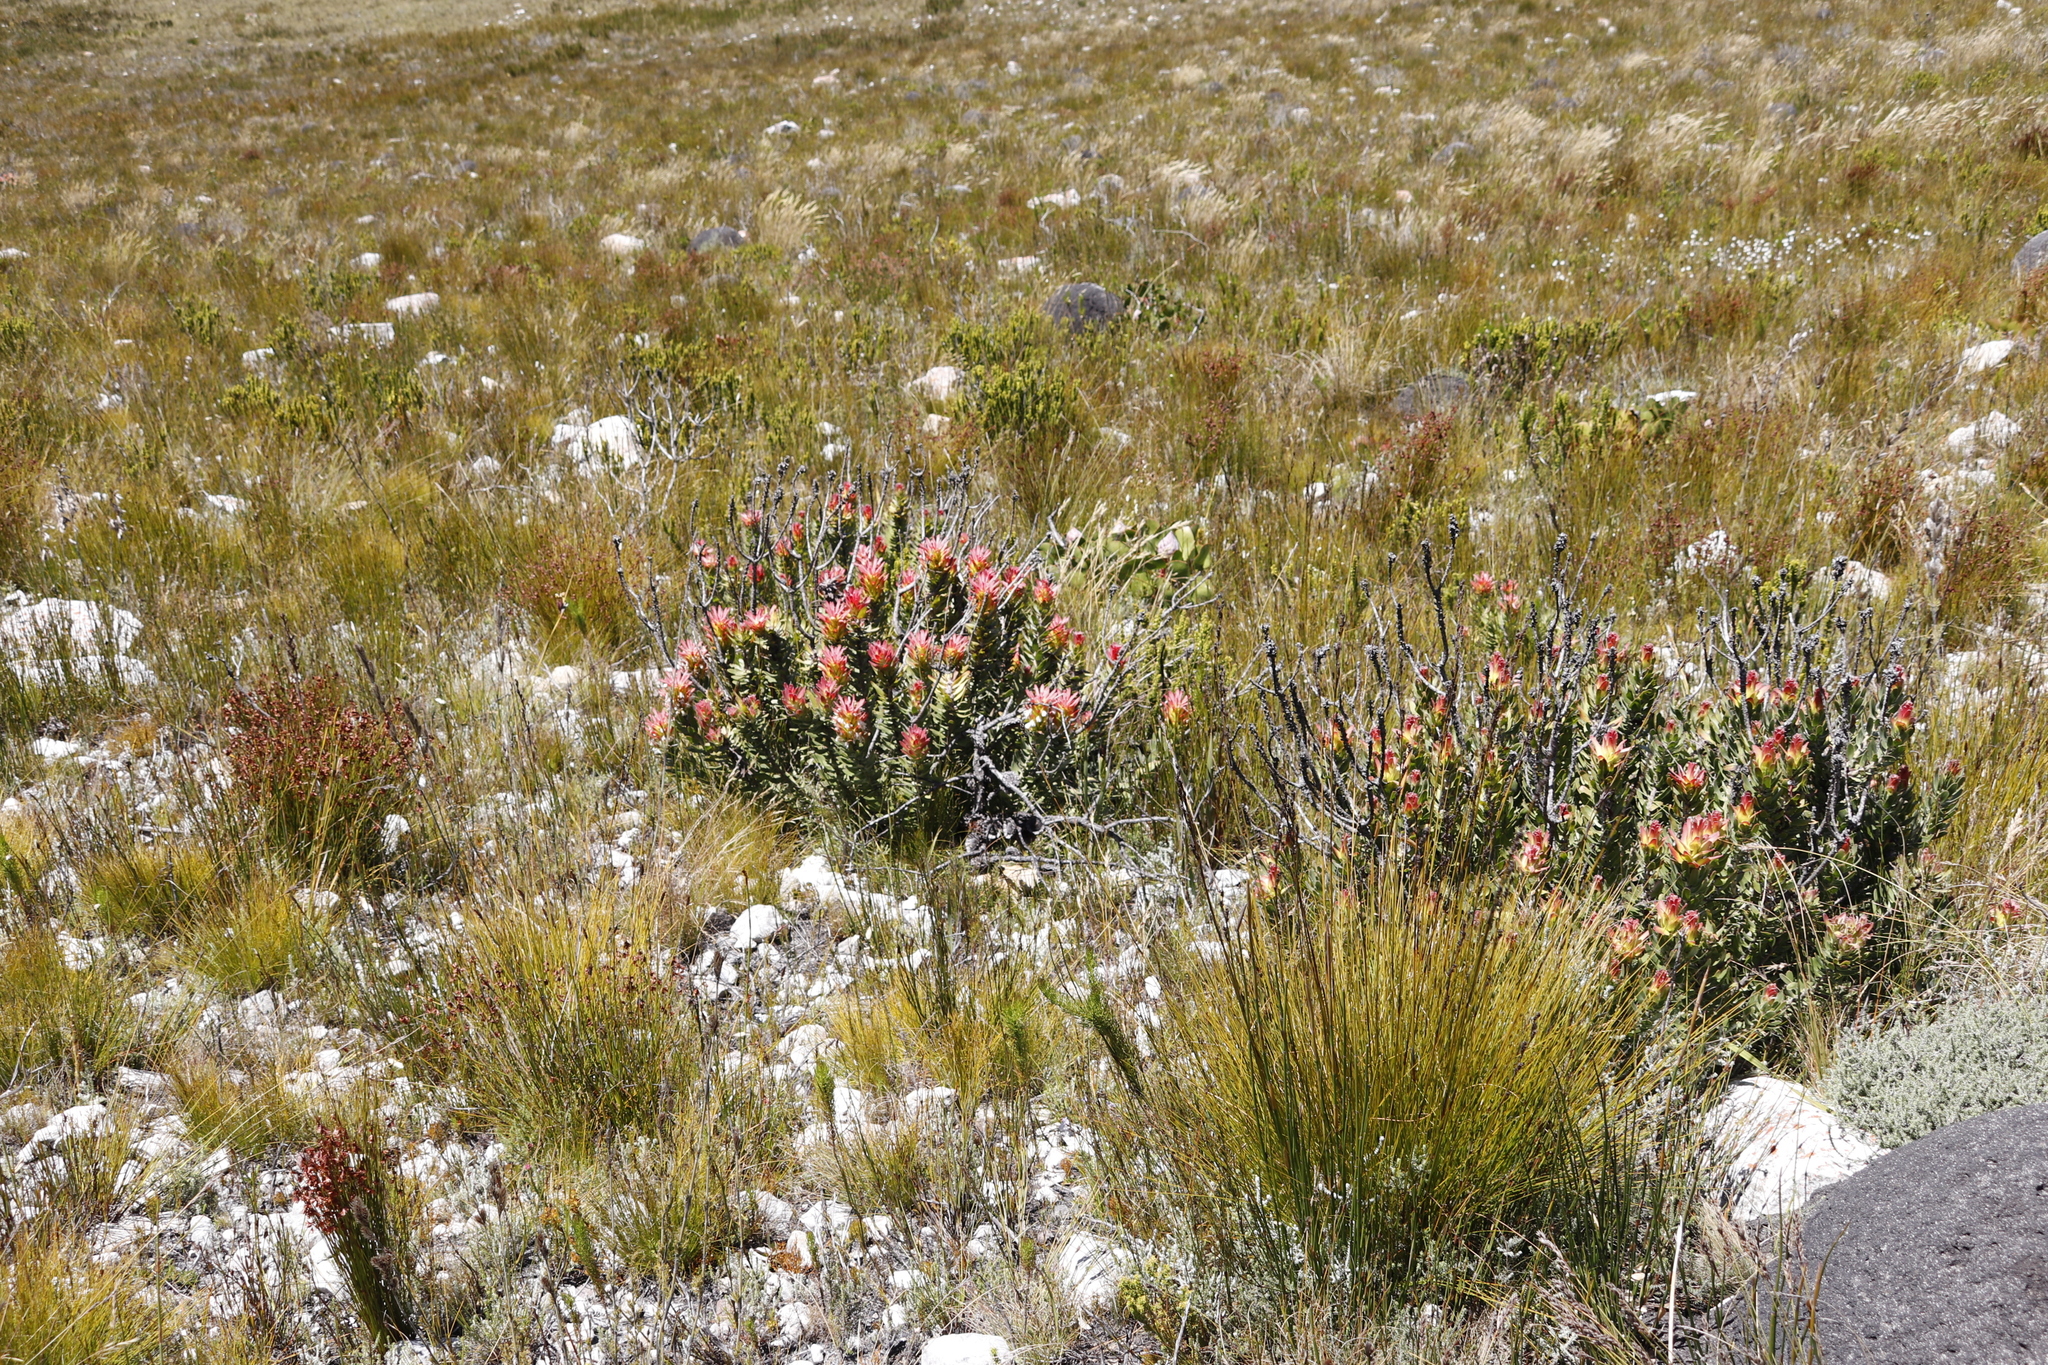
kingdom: Plantae
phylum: Tracheophyta
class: Magnoliopsida
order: Proteales
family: Proteaceae
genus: Mimetes
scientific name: Mimetes cucullatus
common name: Common pagoda
